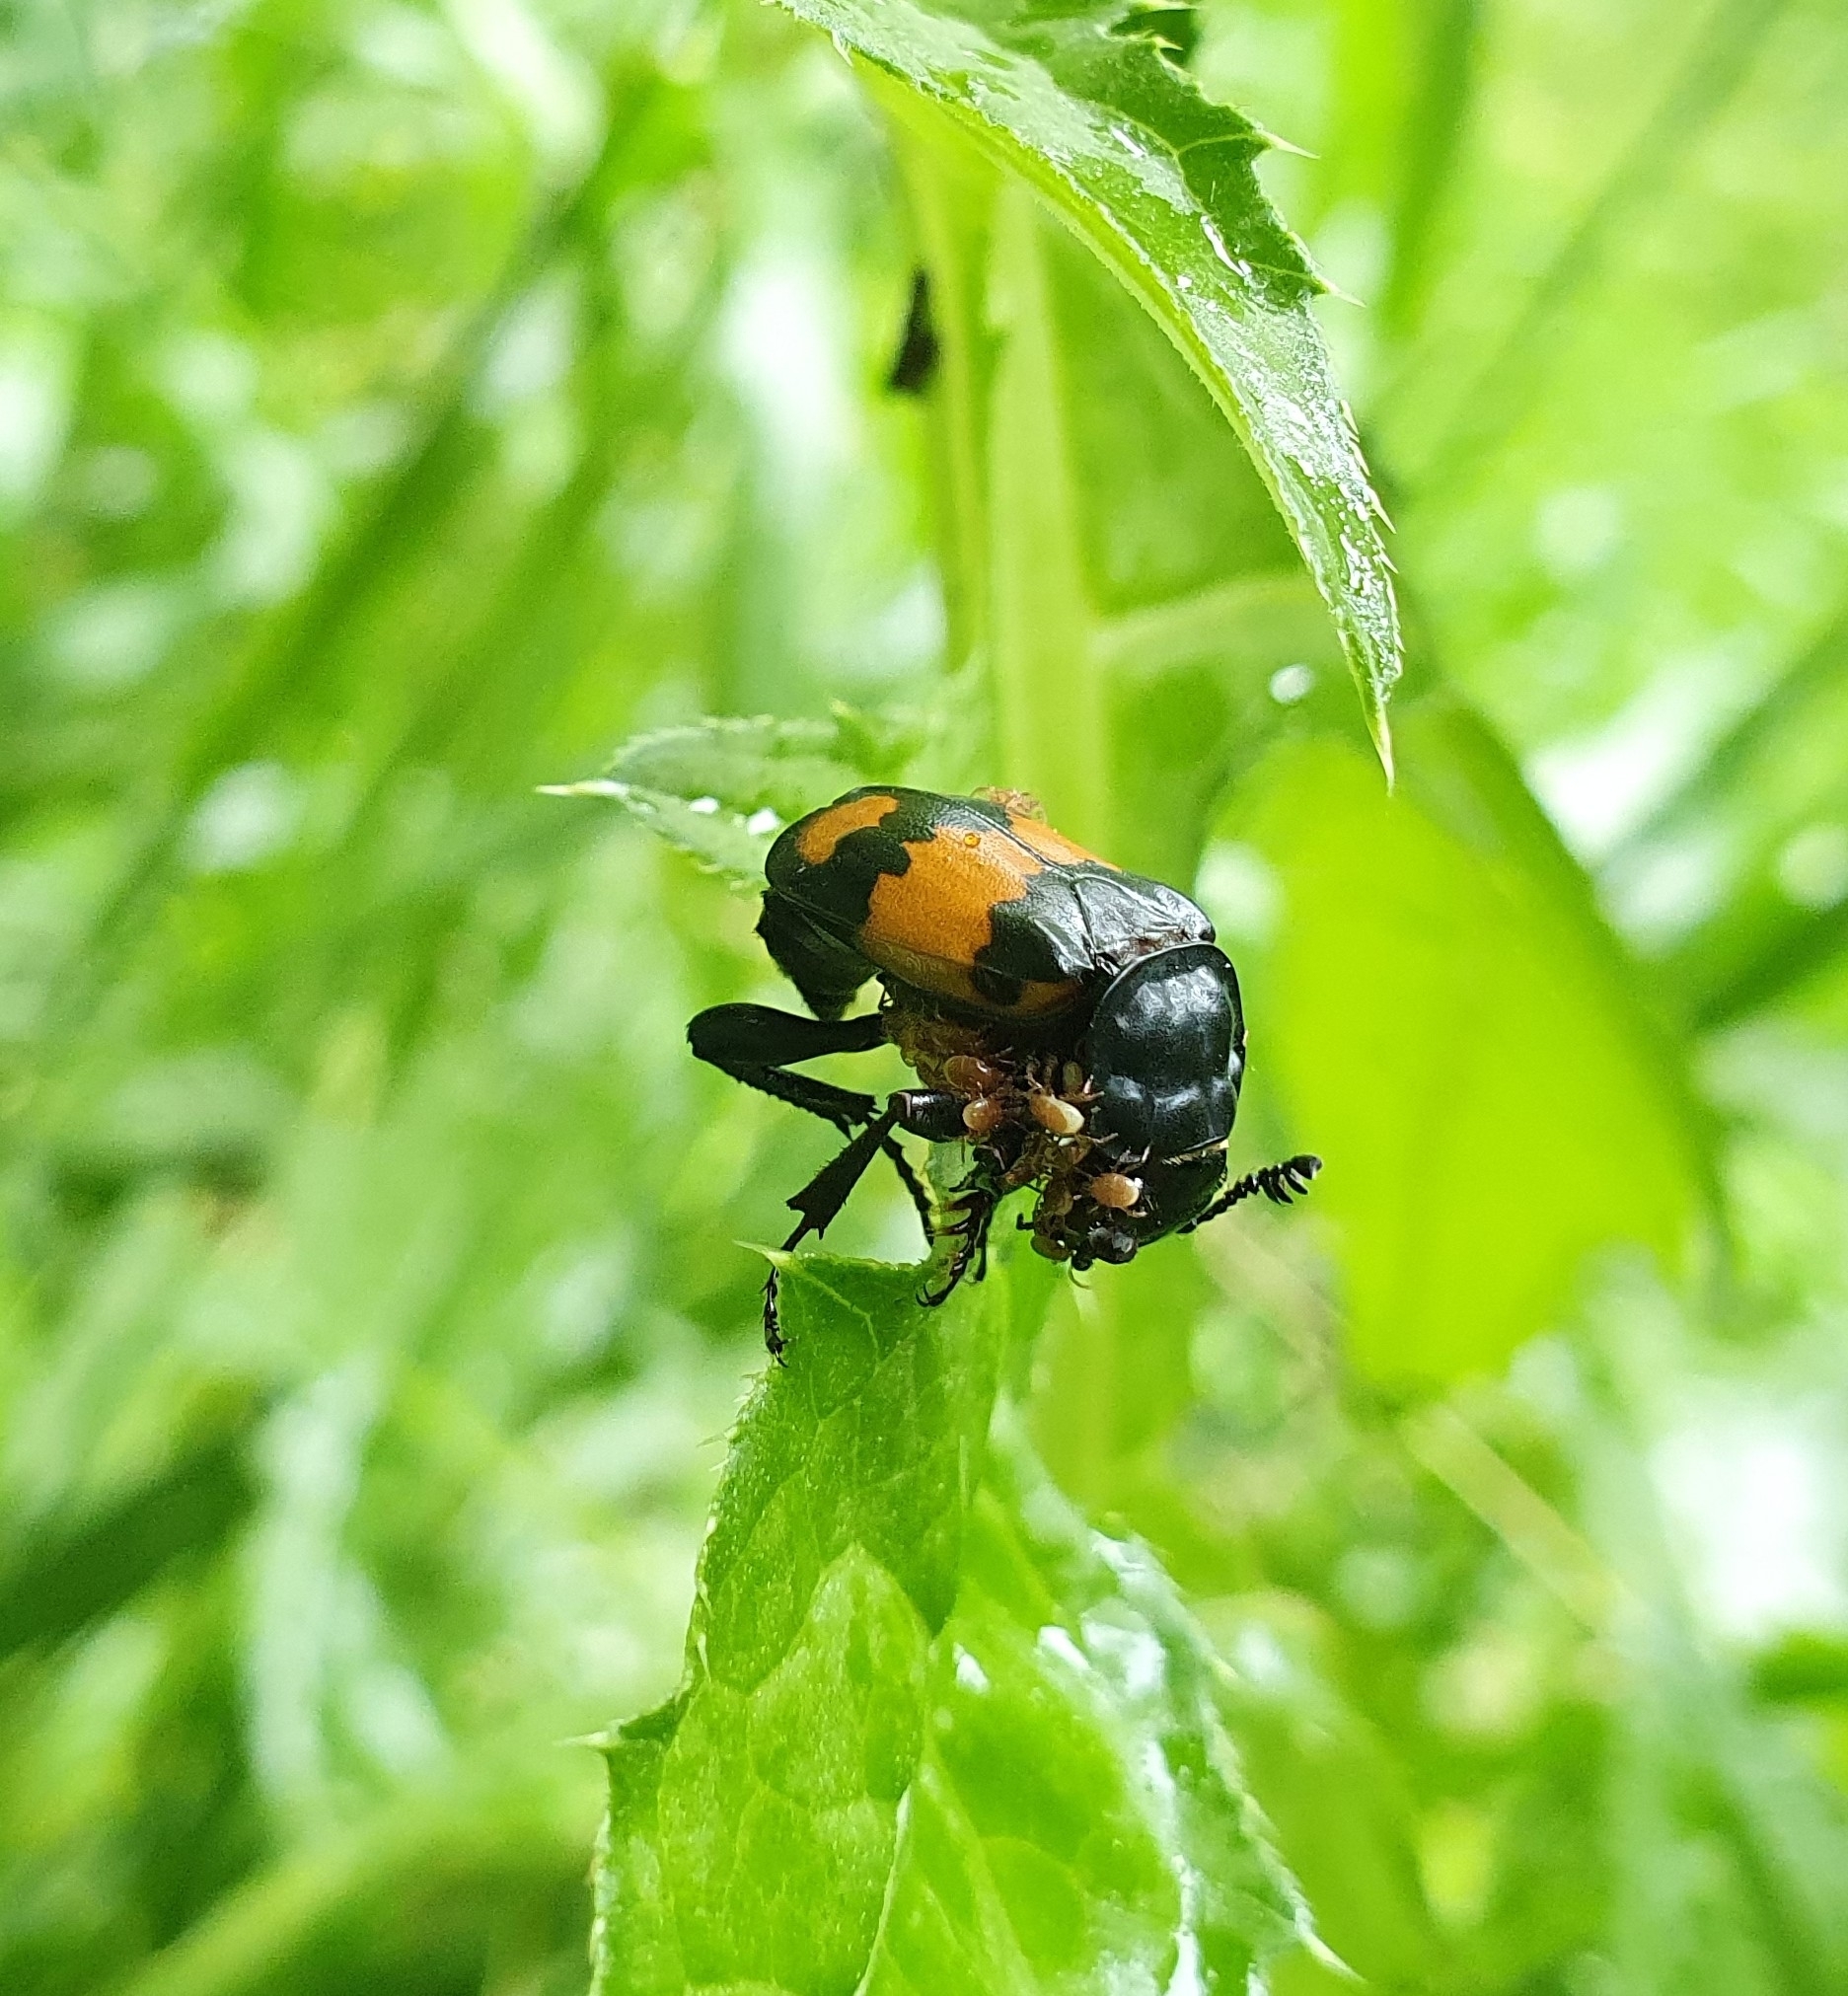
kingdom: Animalia
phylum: Arthropoda
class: Insecta
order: Coleoptera
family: Staphylinidae
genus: Nicrophorus
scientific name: Nicrophorus vespilloides
